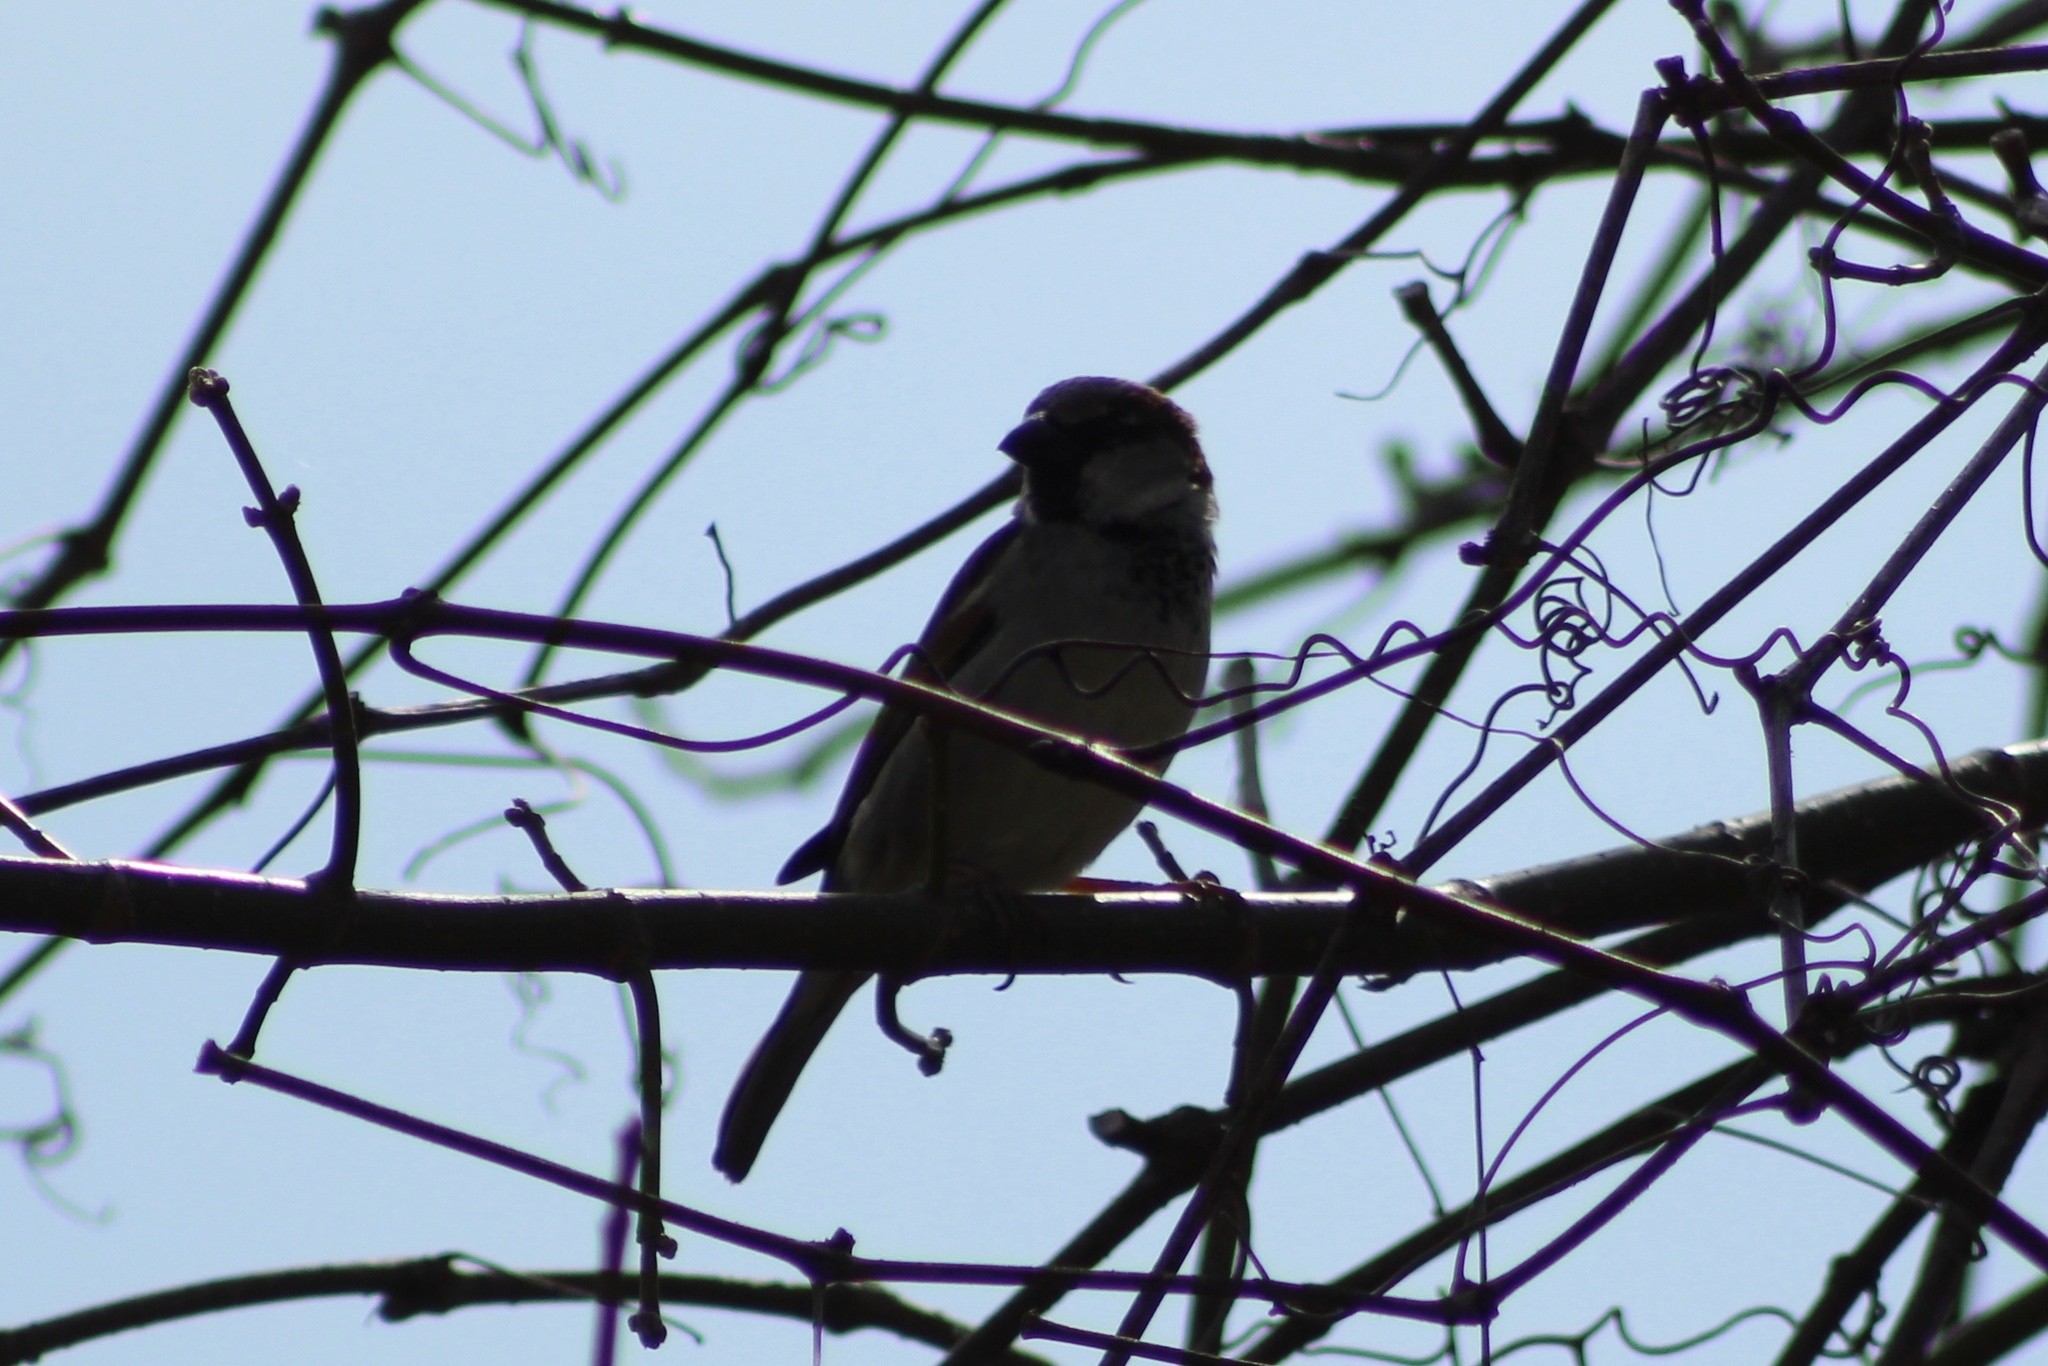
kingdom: Animalia
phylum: Chordata
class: Aves
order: Passeriformes
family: Passeridae
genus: Passer
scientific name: Passer domesticus
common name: House sparrow
